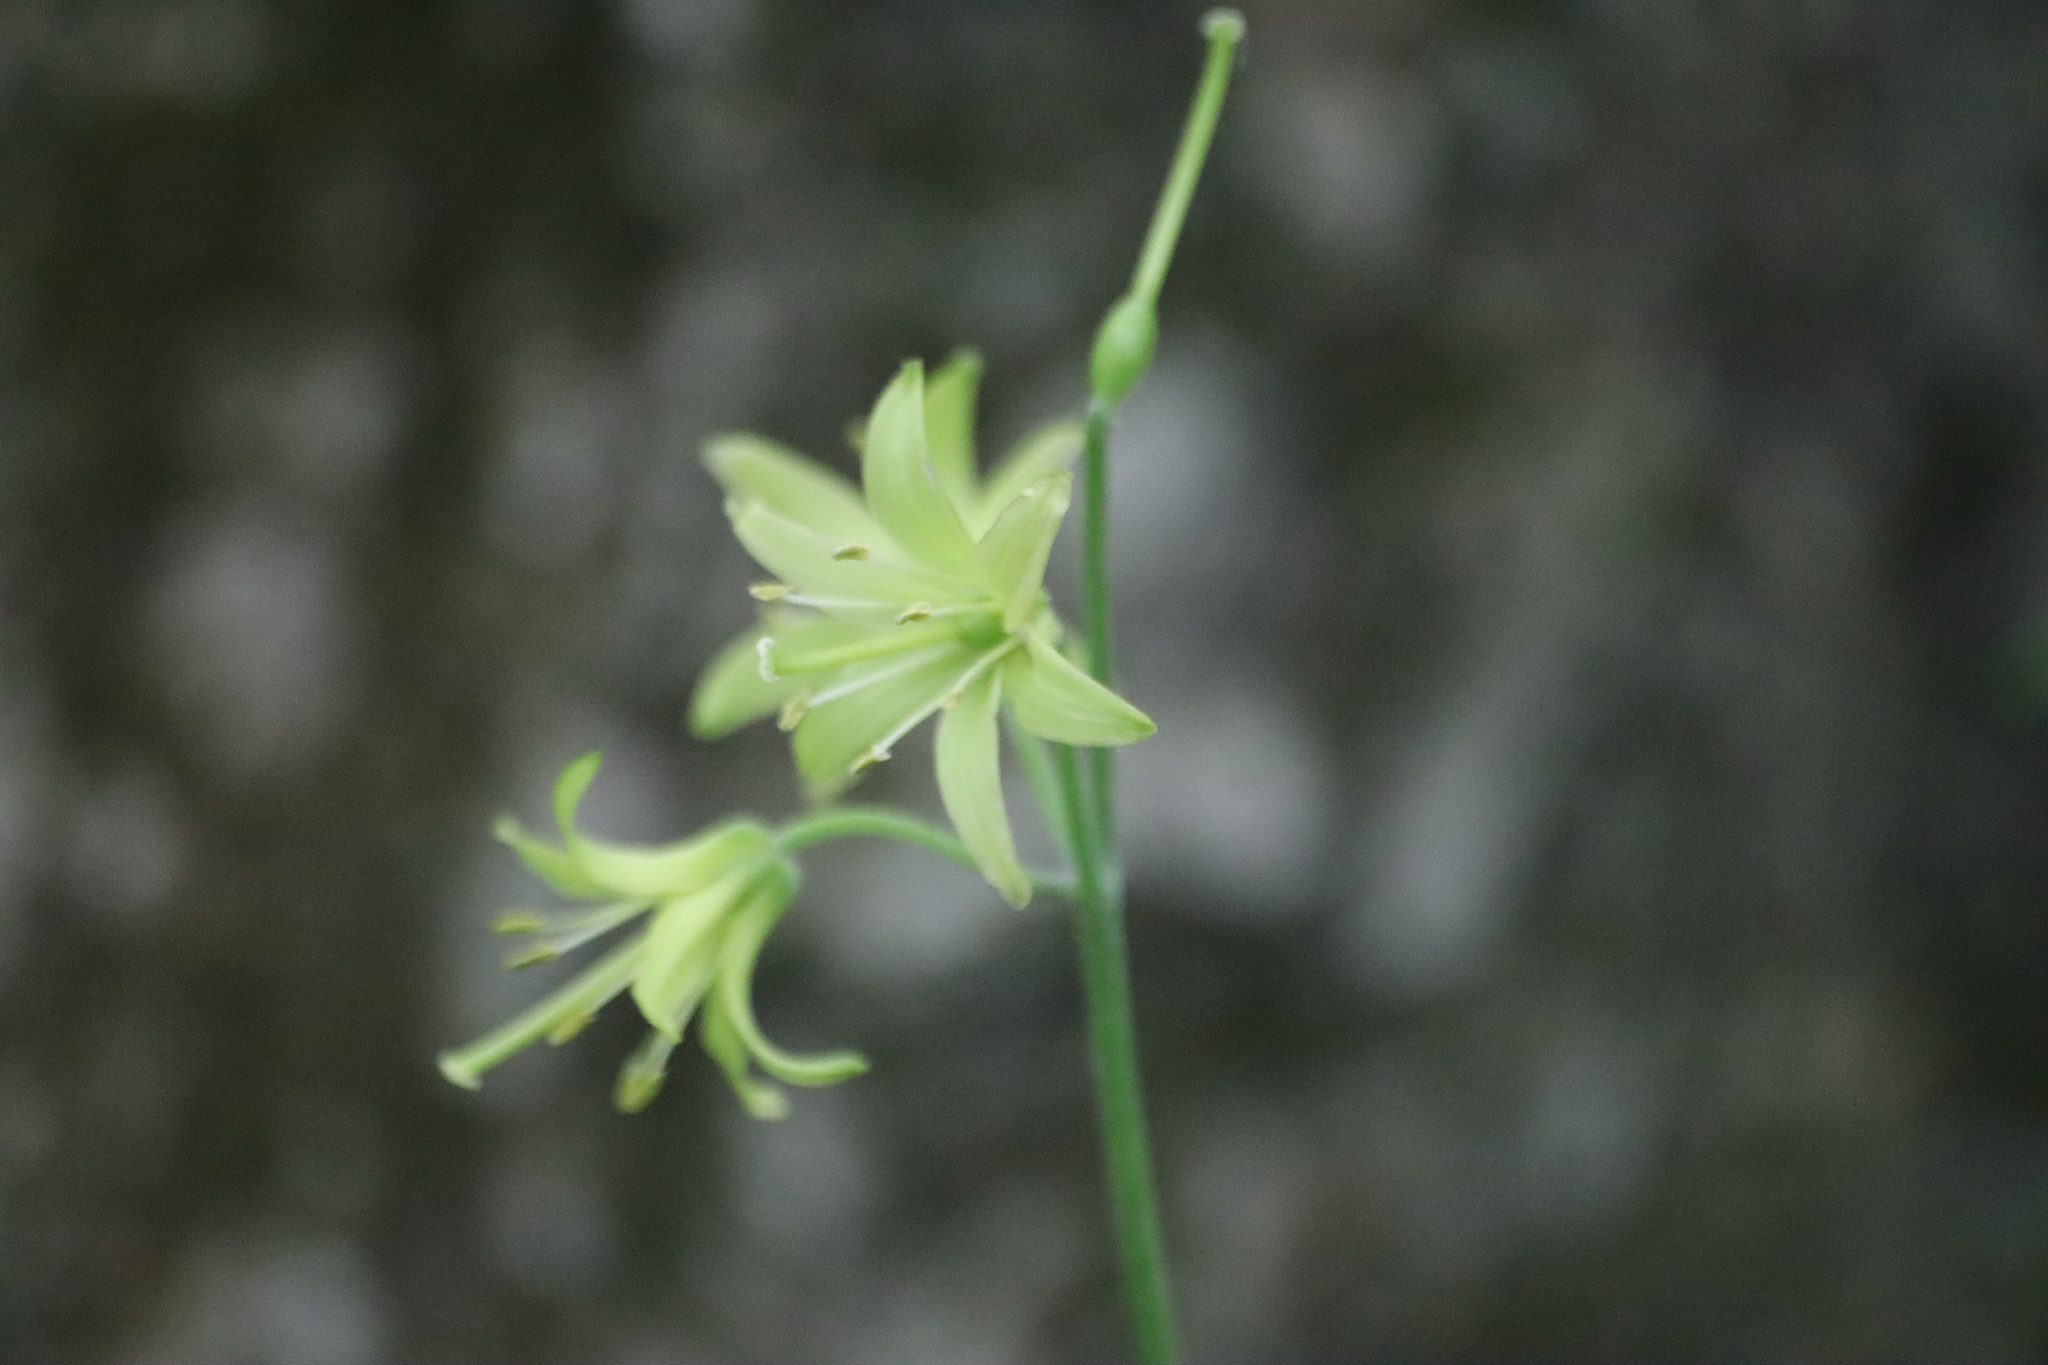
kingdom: Plantae
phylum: Tracheophyta
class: Liliopsida
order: Liliales
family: Liliaceae
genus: Clintonia
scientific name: Clintonia borealis
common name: Yellow clintonia
